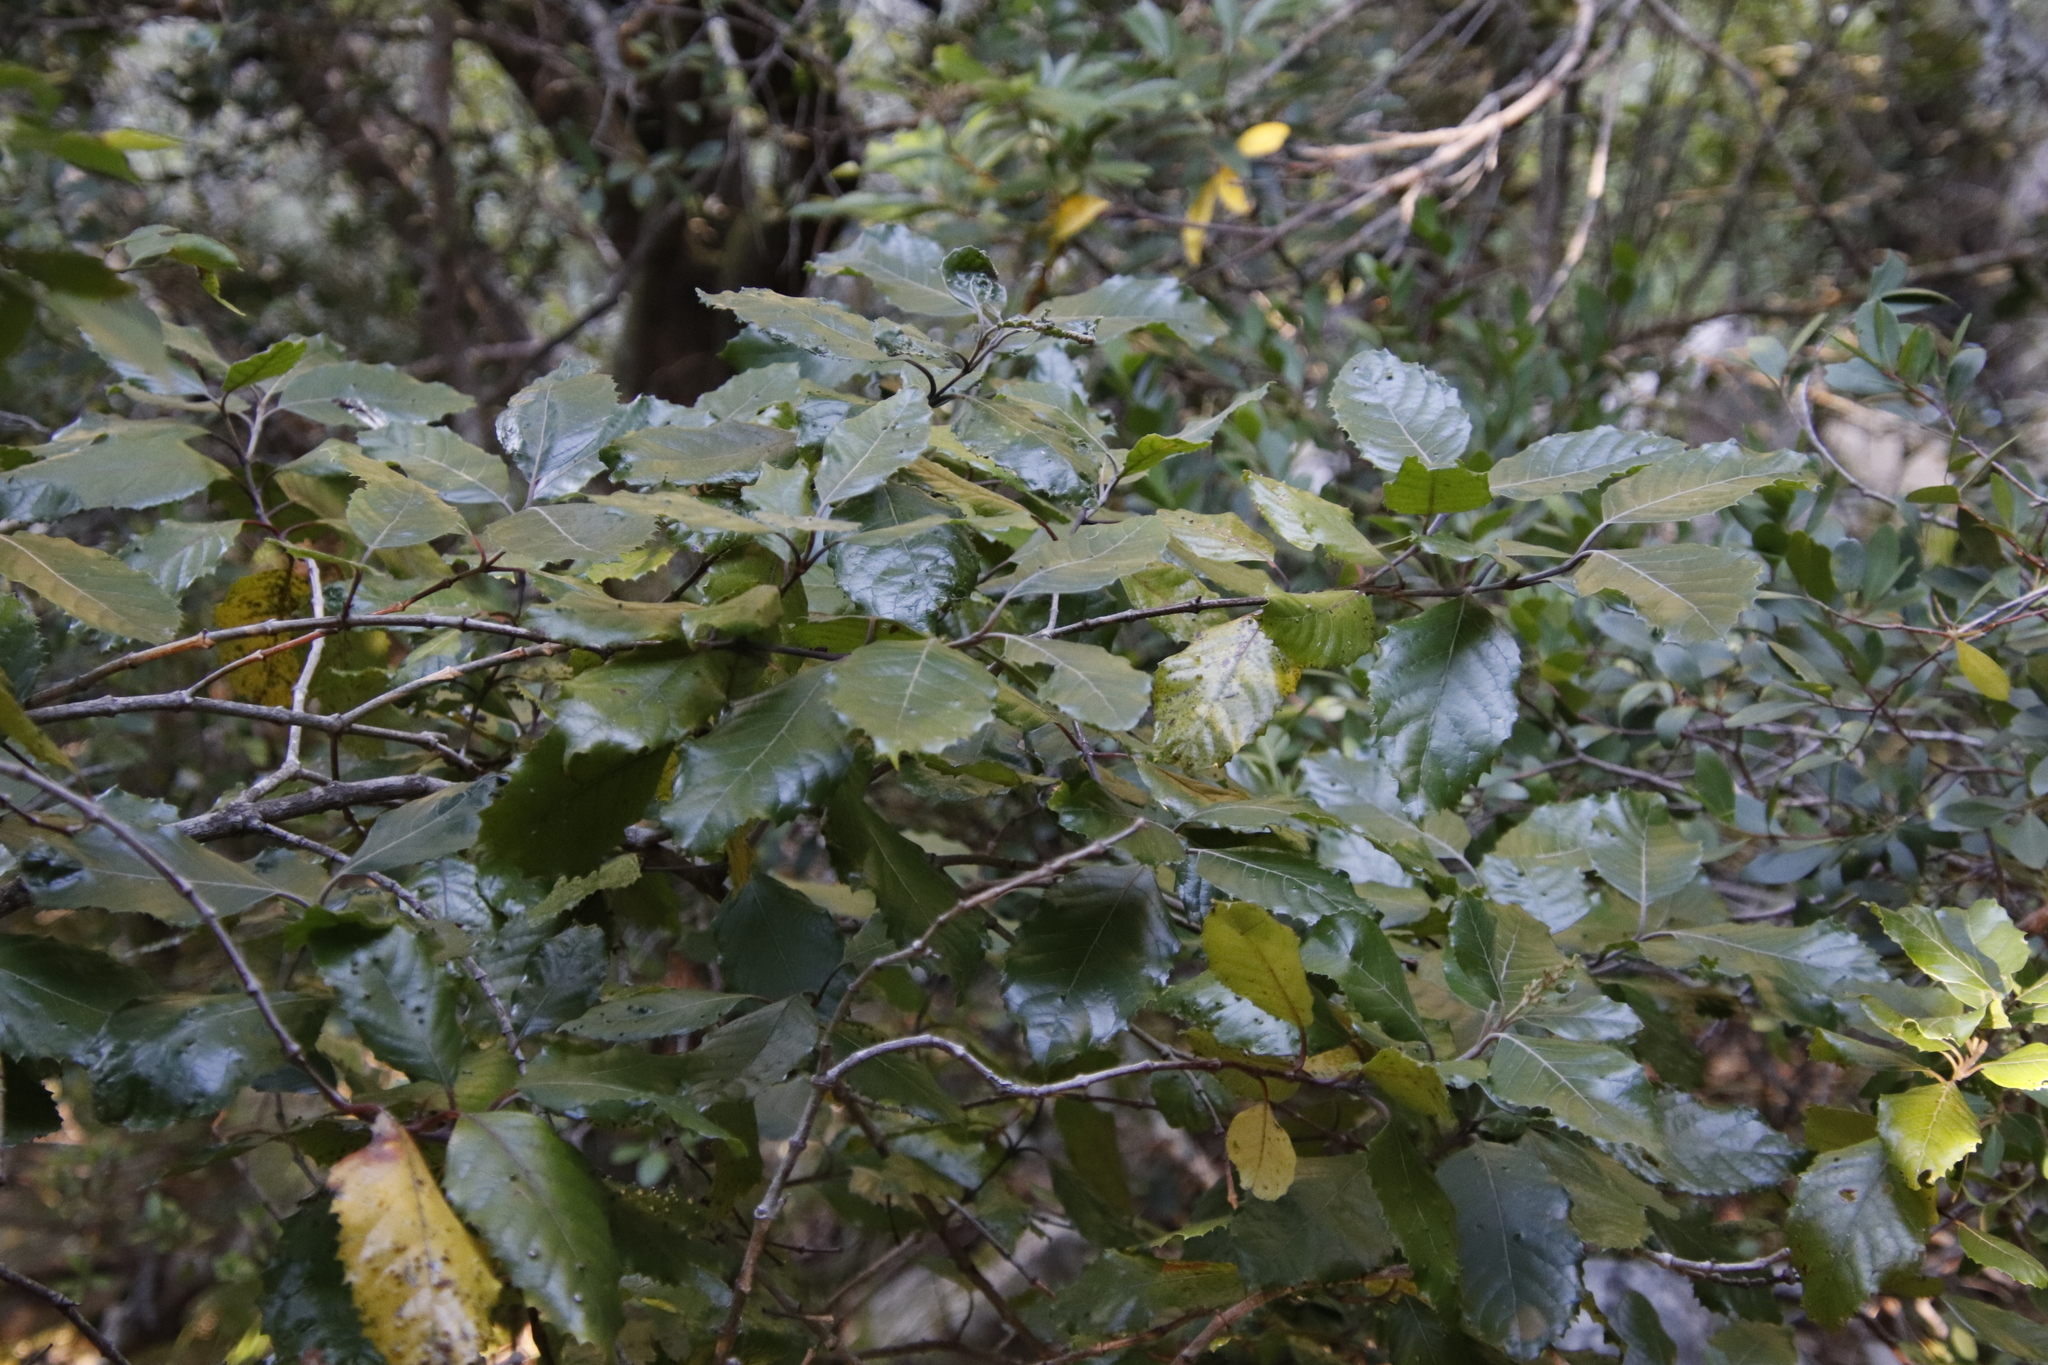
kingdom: Plantae
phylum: Tracheophyta
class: Magnoliopsida
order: Cornales
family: Curtisiaceae
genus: Curtisia
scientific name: Curtisia dentata
